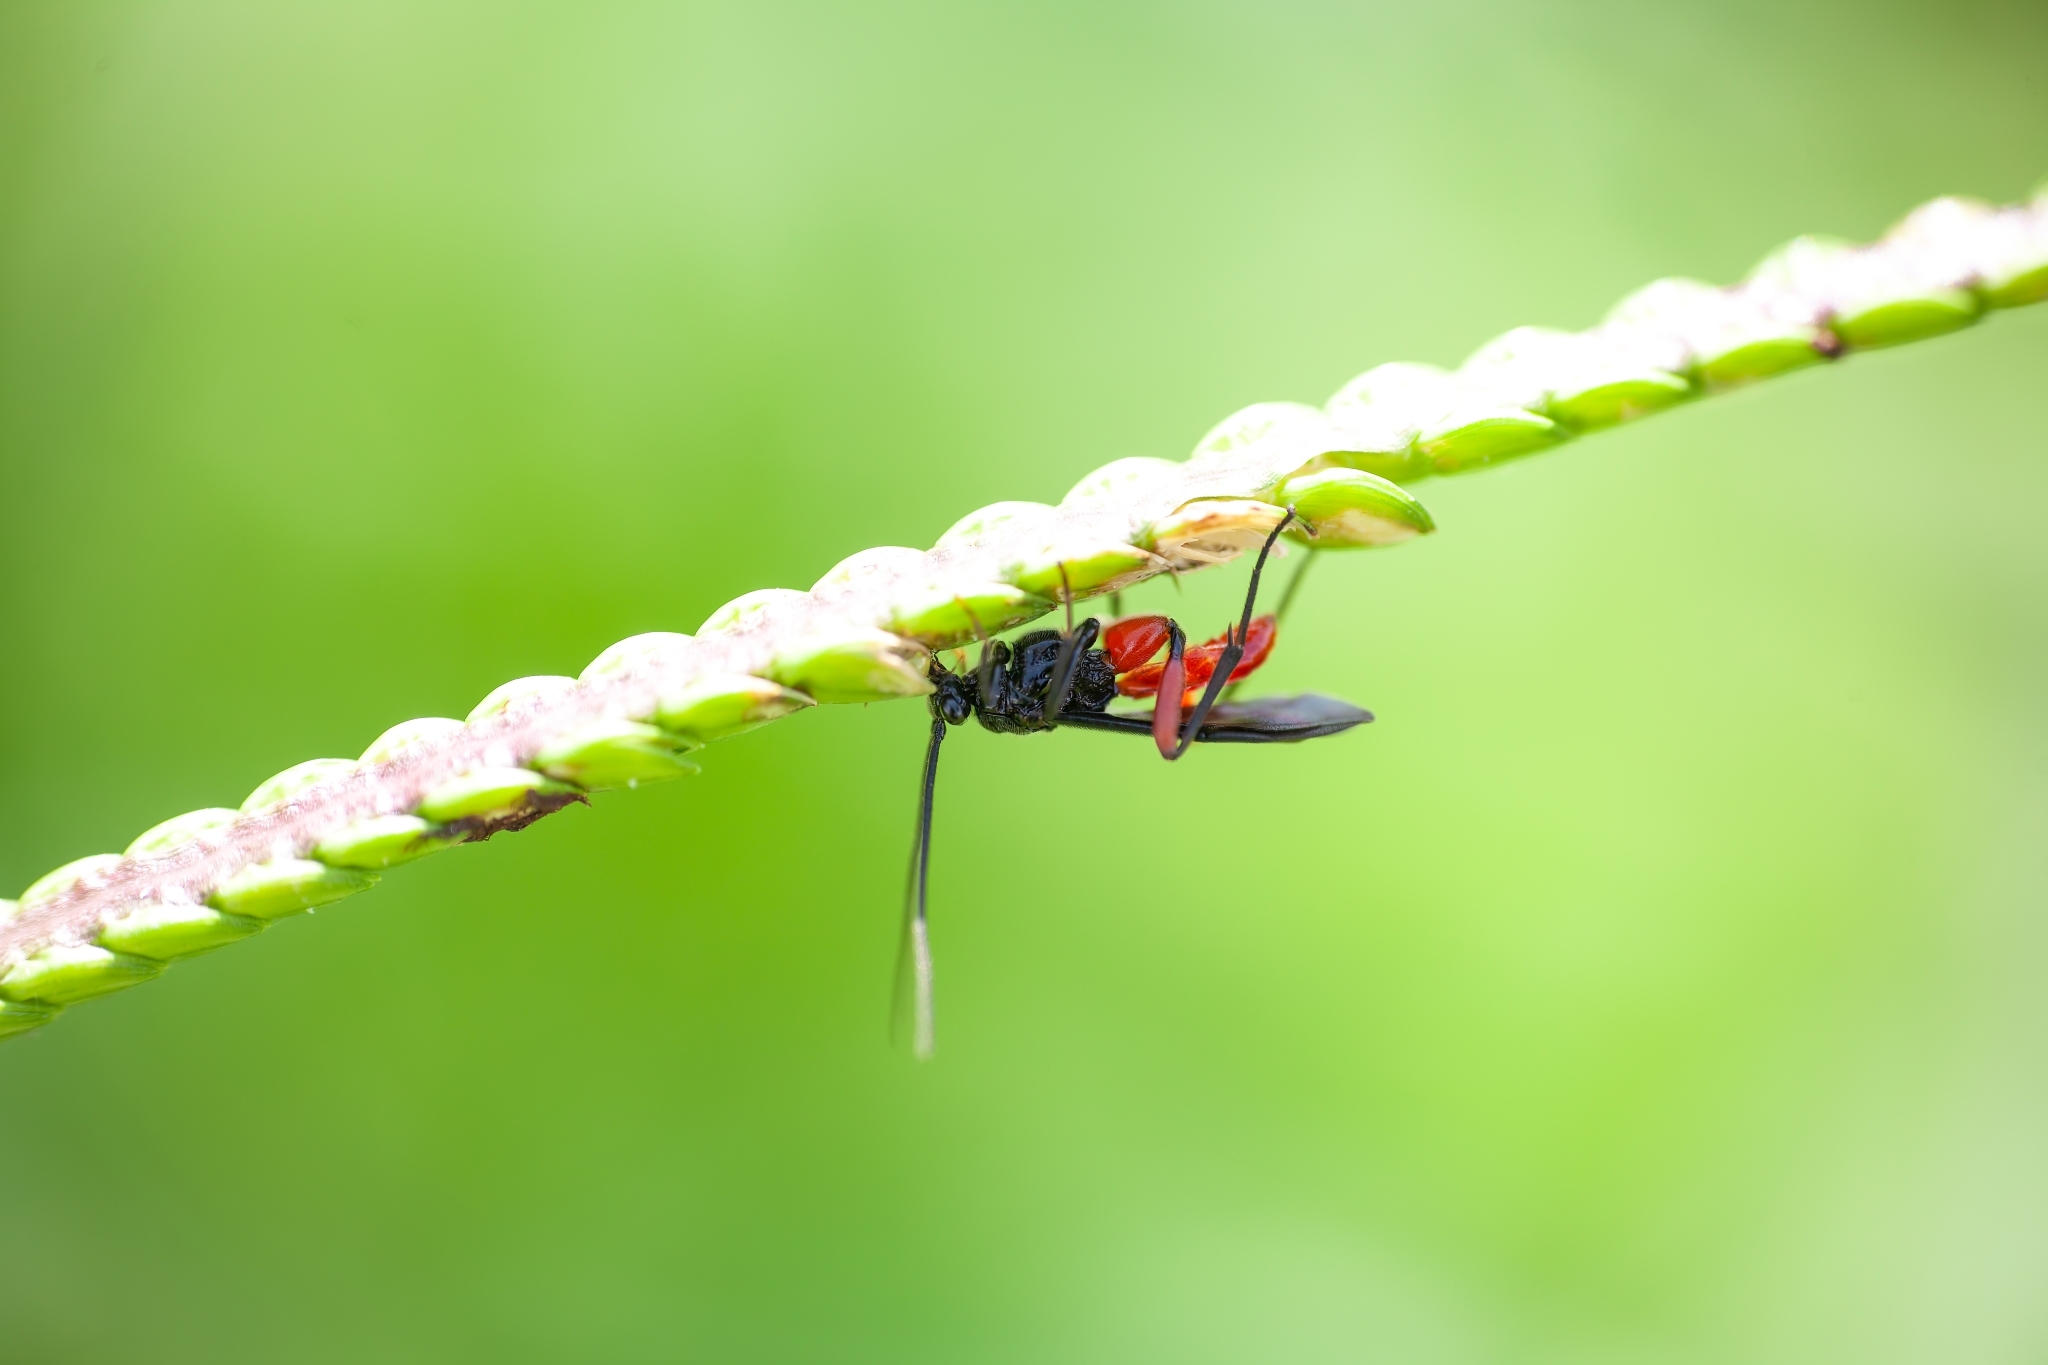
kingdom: Animalia
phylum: Arthropoda
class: Insecta
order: Hymenoptera
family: Braconidae
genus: Alabagrus
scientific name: Alabagrus texanus
